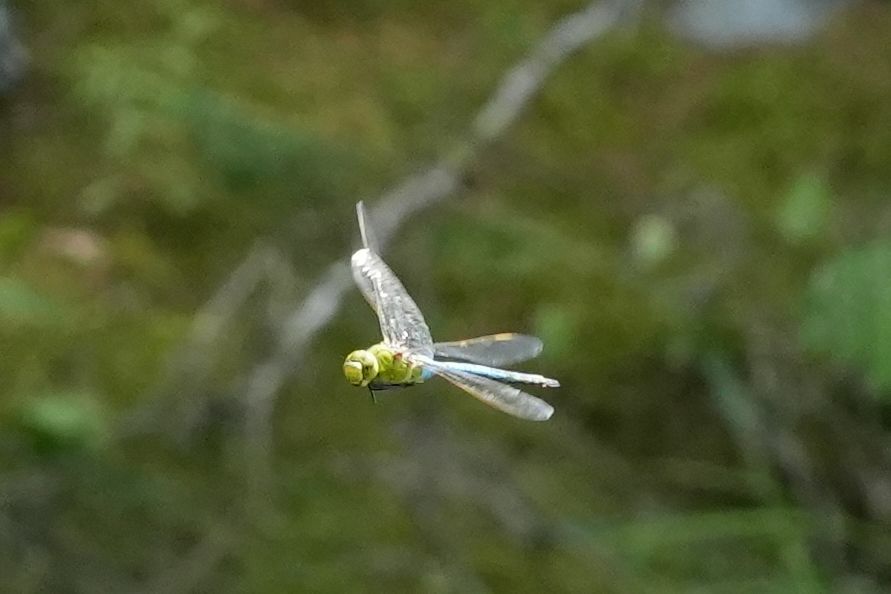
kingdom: Animalia
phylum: Arthropoda
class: Insecta
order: Odonata
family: Aeshnidae
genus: Anax
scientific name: Anax junius
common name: Common green darner
